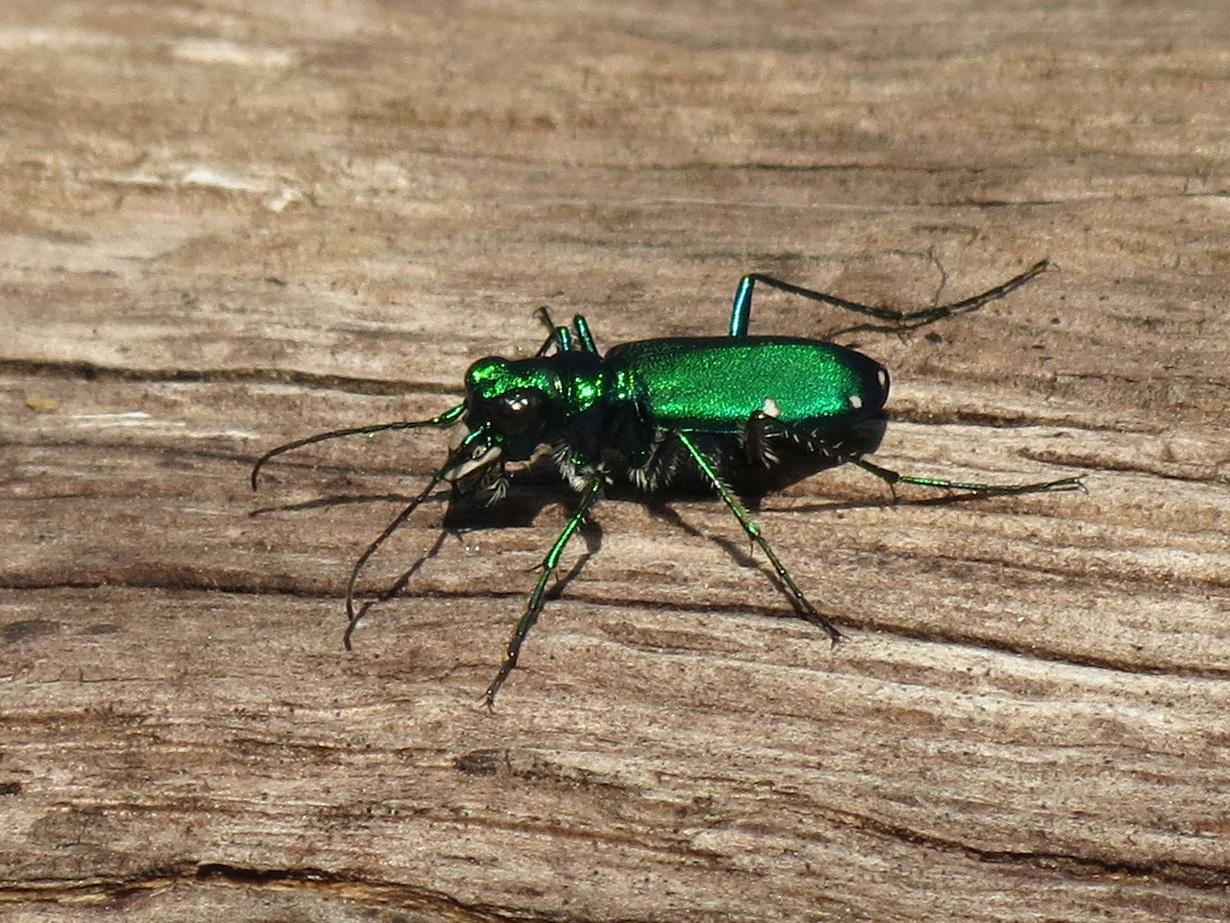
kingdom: Animalia
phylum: Arthropoda
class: Insecta
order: Coleoptera
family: Carabidae
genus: Cicindela
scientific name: Cicindela sexguttata
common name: Six-spotted tiger beetle
